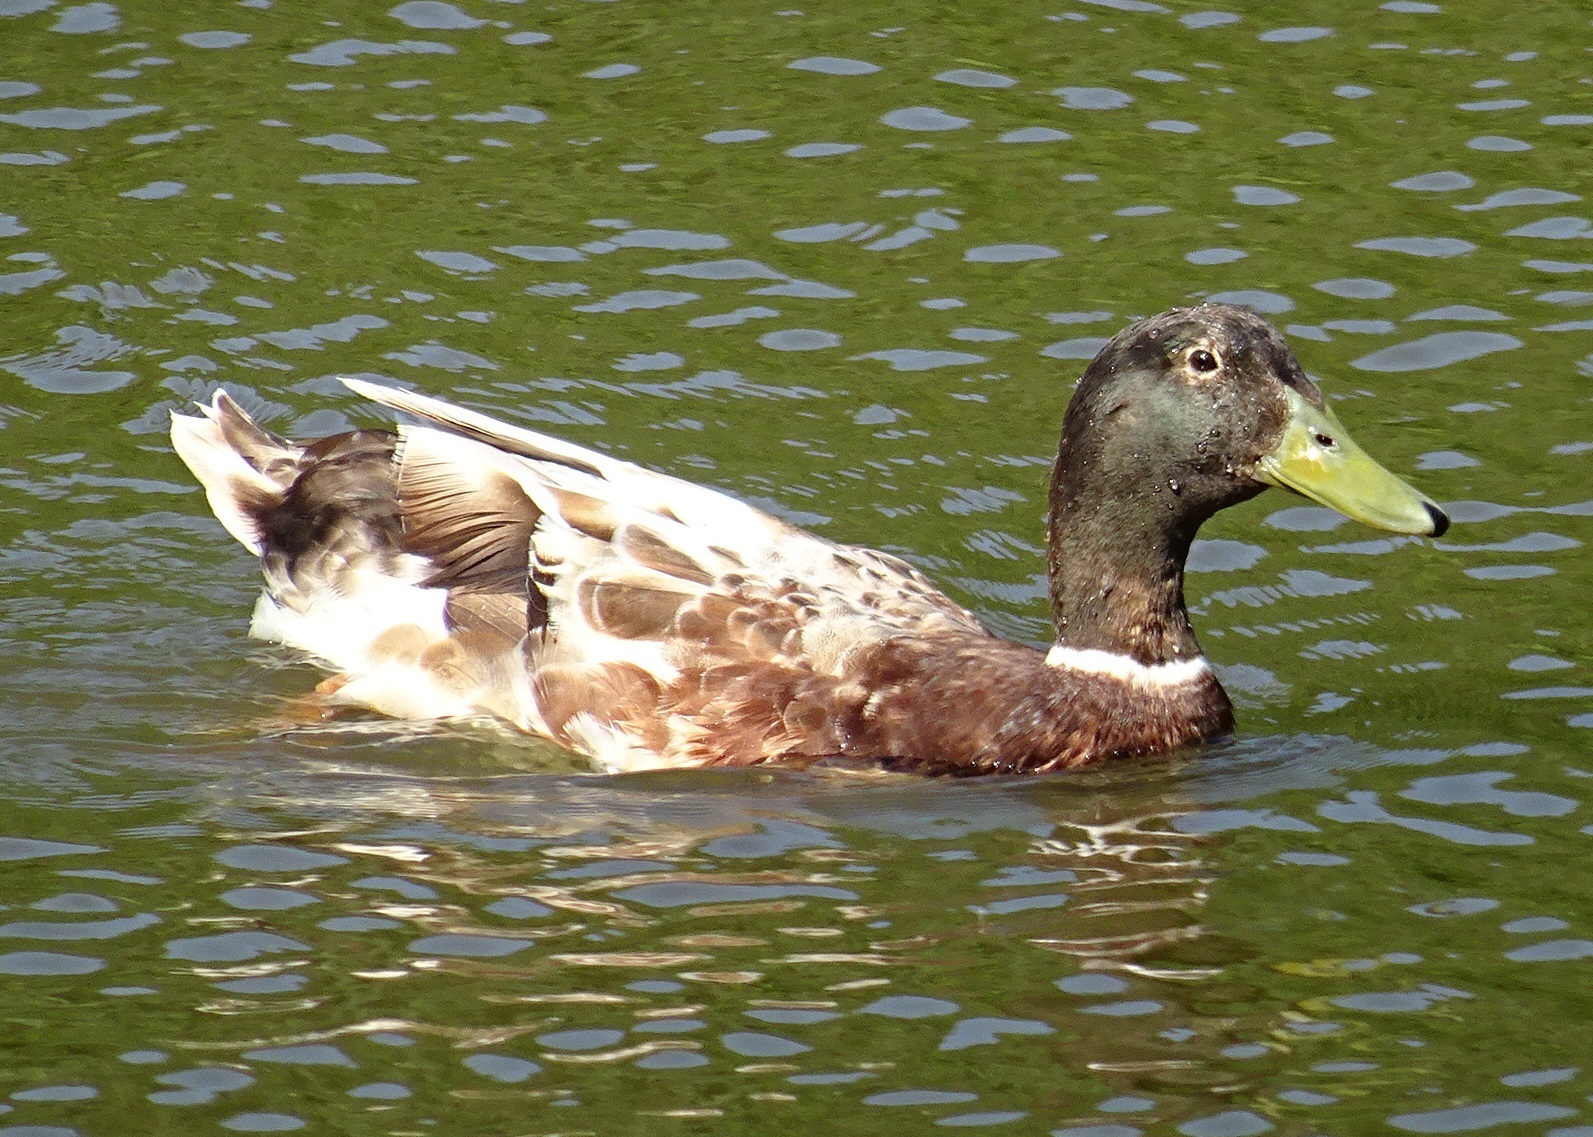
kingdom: Animalia
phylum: Chordata
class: Aves
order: Anseriformes
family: Anatidae
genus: Anas
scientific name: Anas platyrhynchos
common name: Mallard
